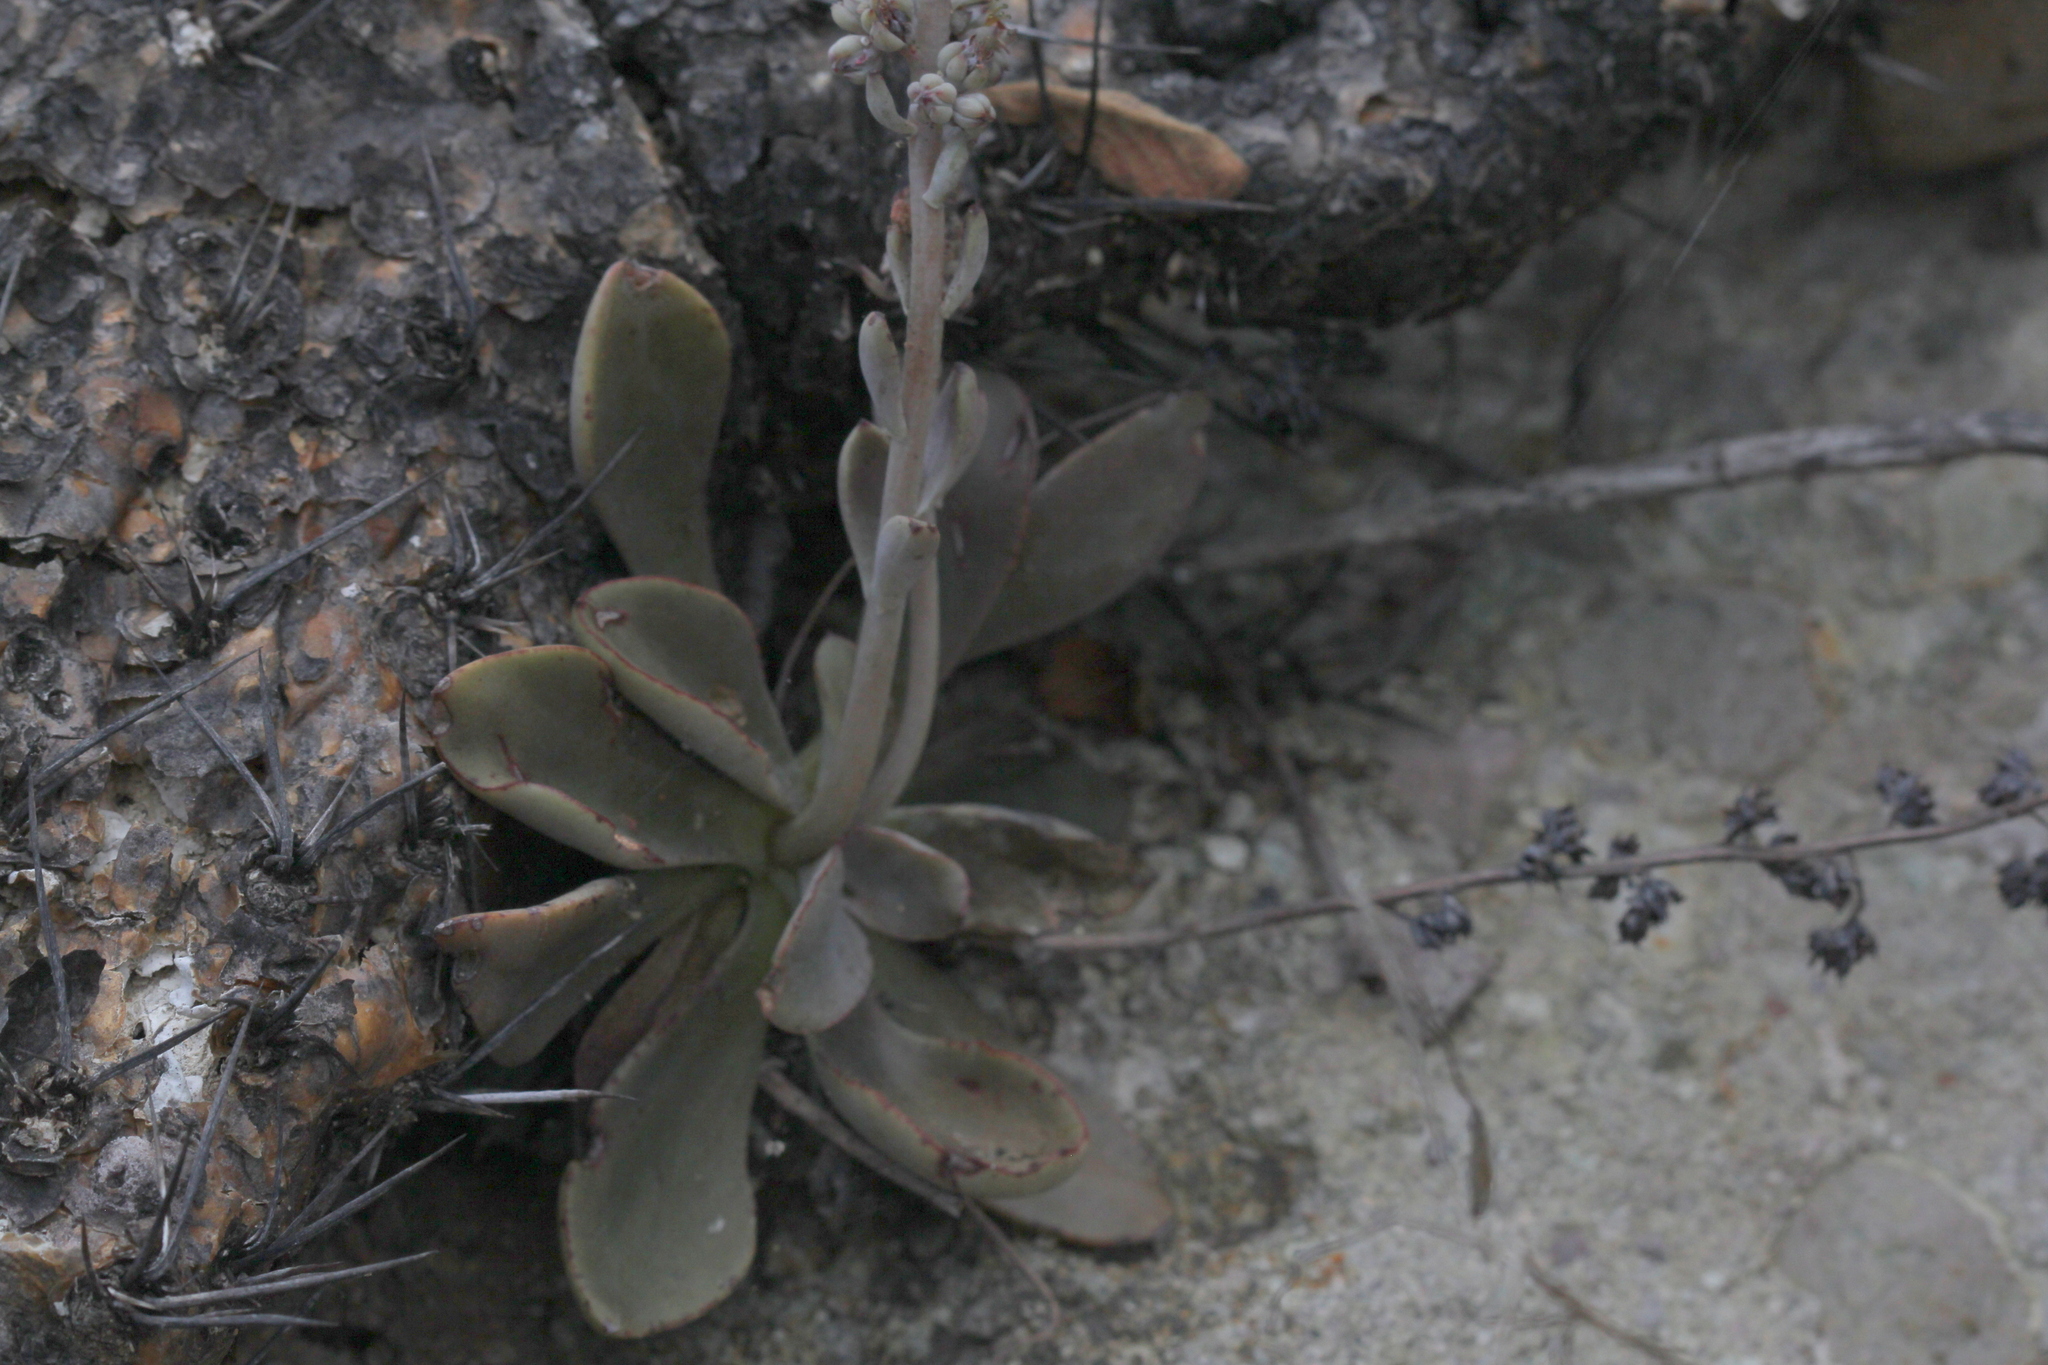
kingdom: Plantae
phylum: Tracheophyta
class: Magnoliopsida
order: Saxifragales
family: Crassulaceae
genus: Thompsonella
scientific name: Thompsonella minutiflora
